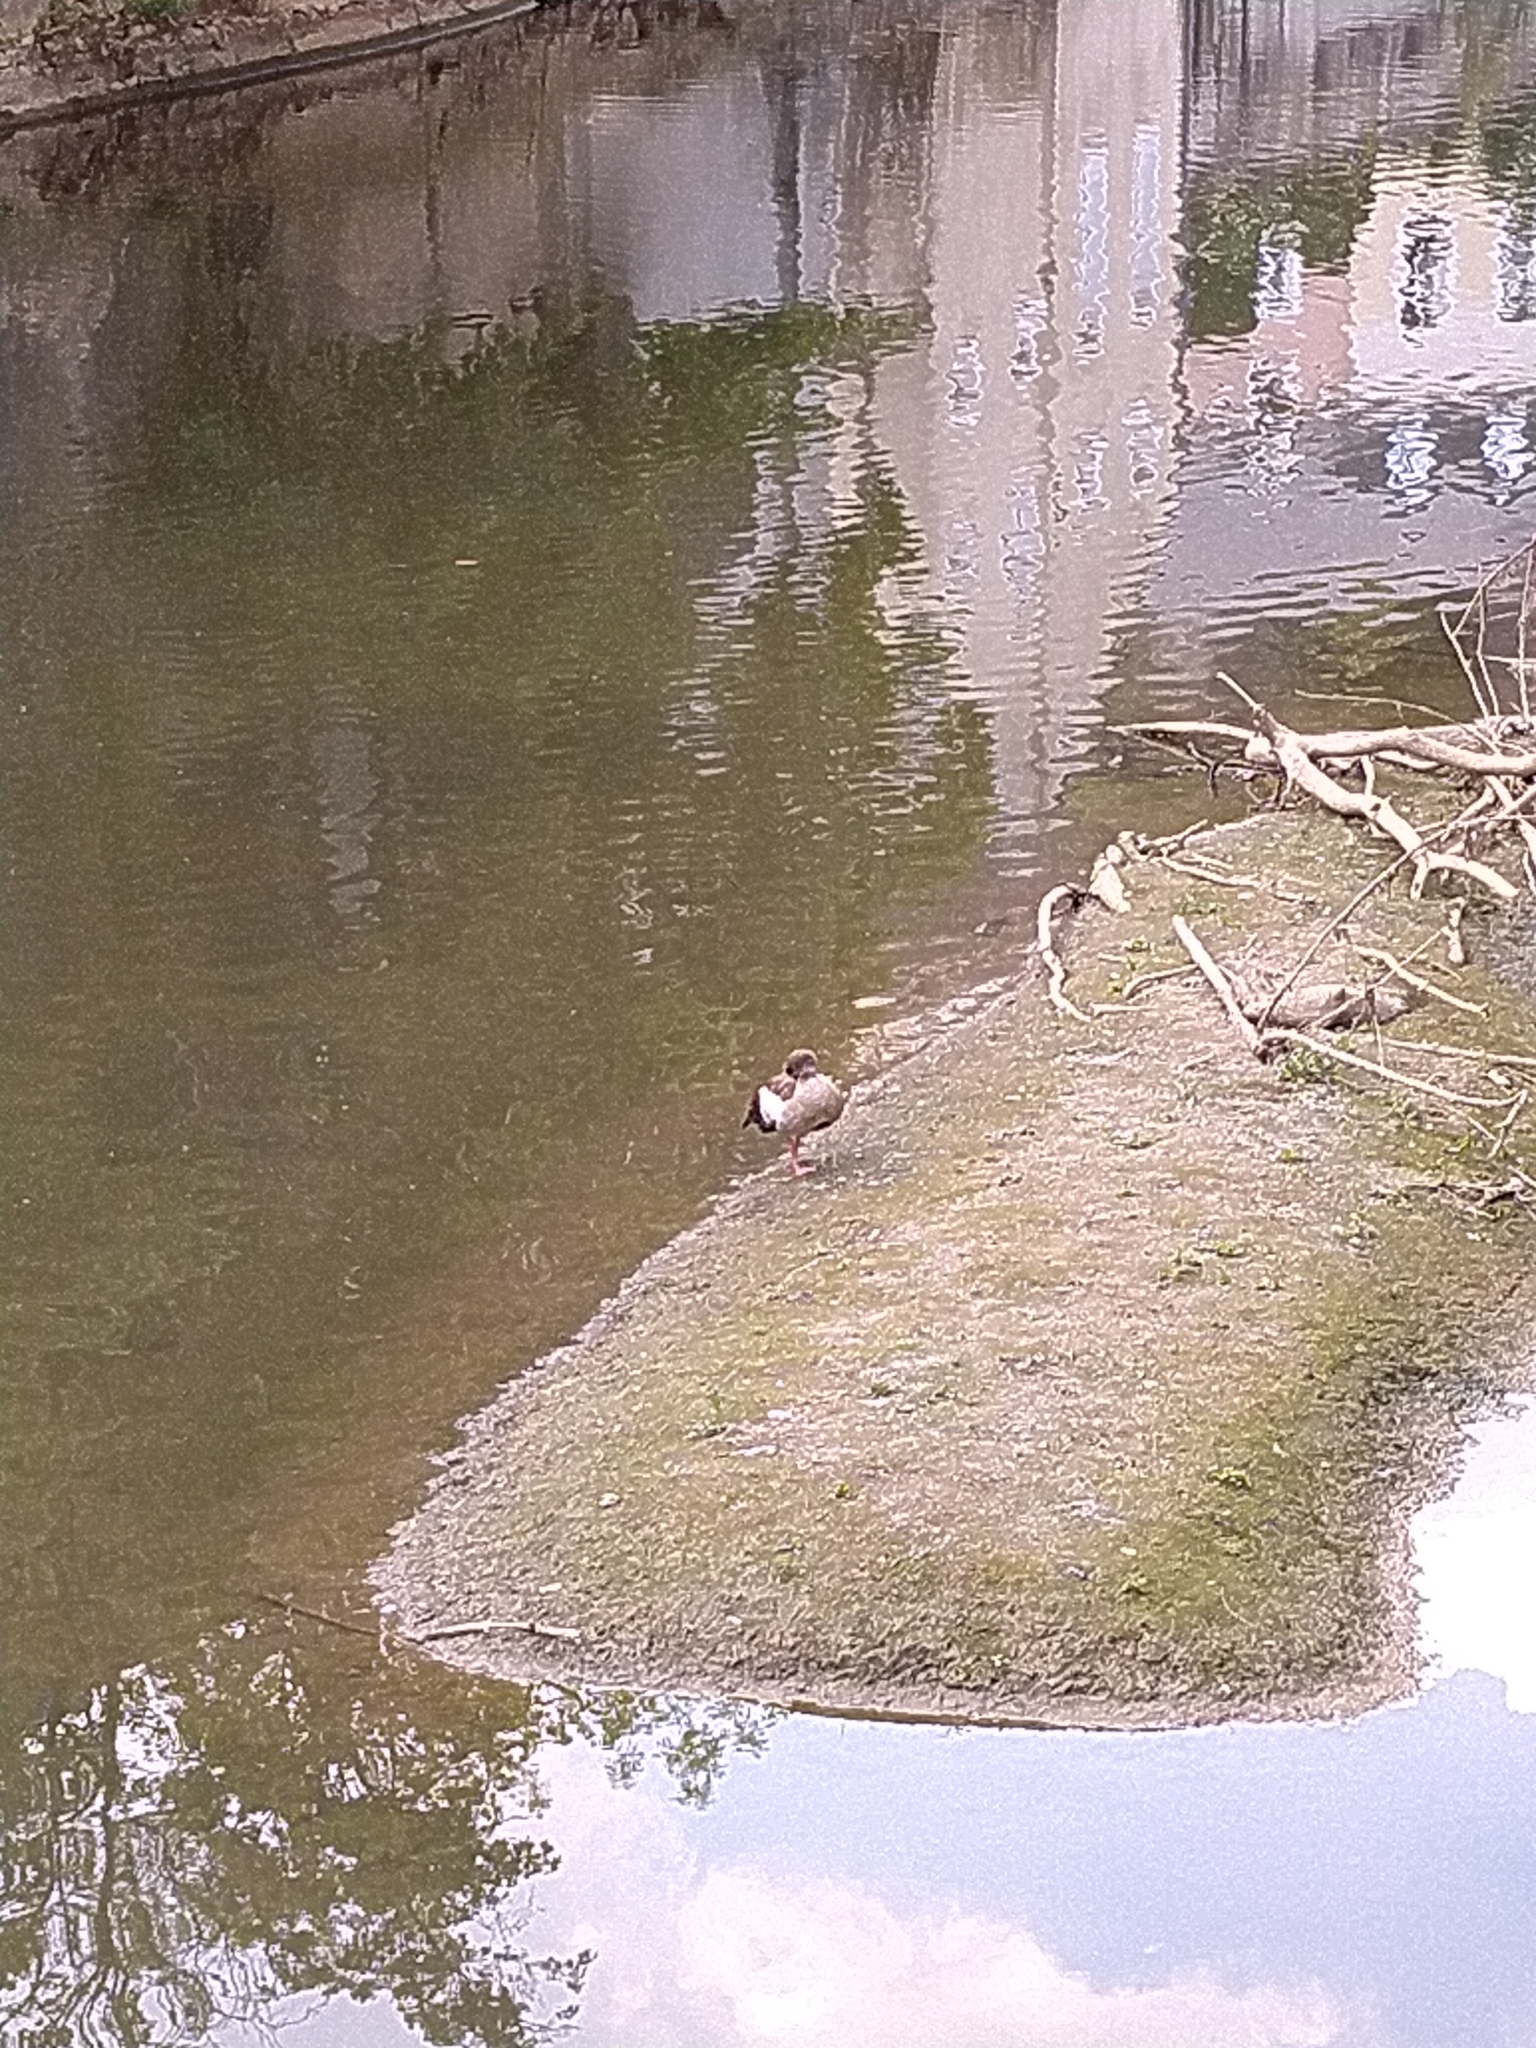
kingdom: Animalia
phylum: Chordata
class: Aves
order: Anseriformes
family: Anatidae
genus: Alopochen
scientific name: Alopochen aegyptiaca
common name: Egyptian goose
